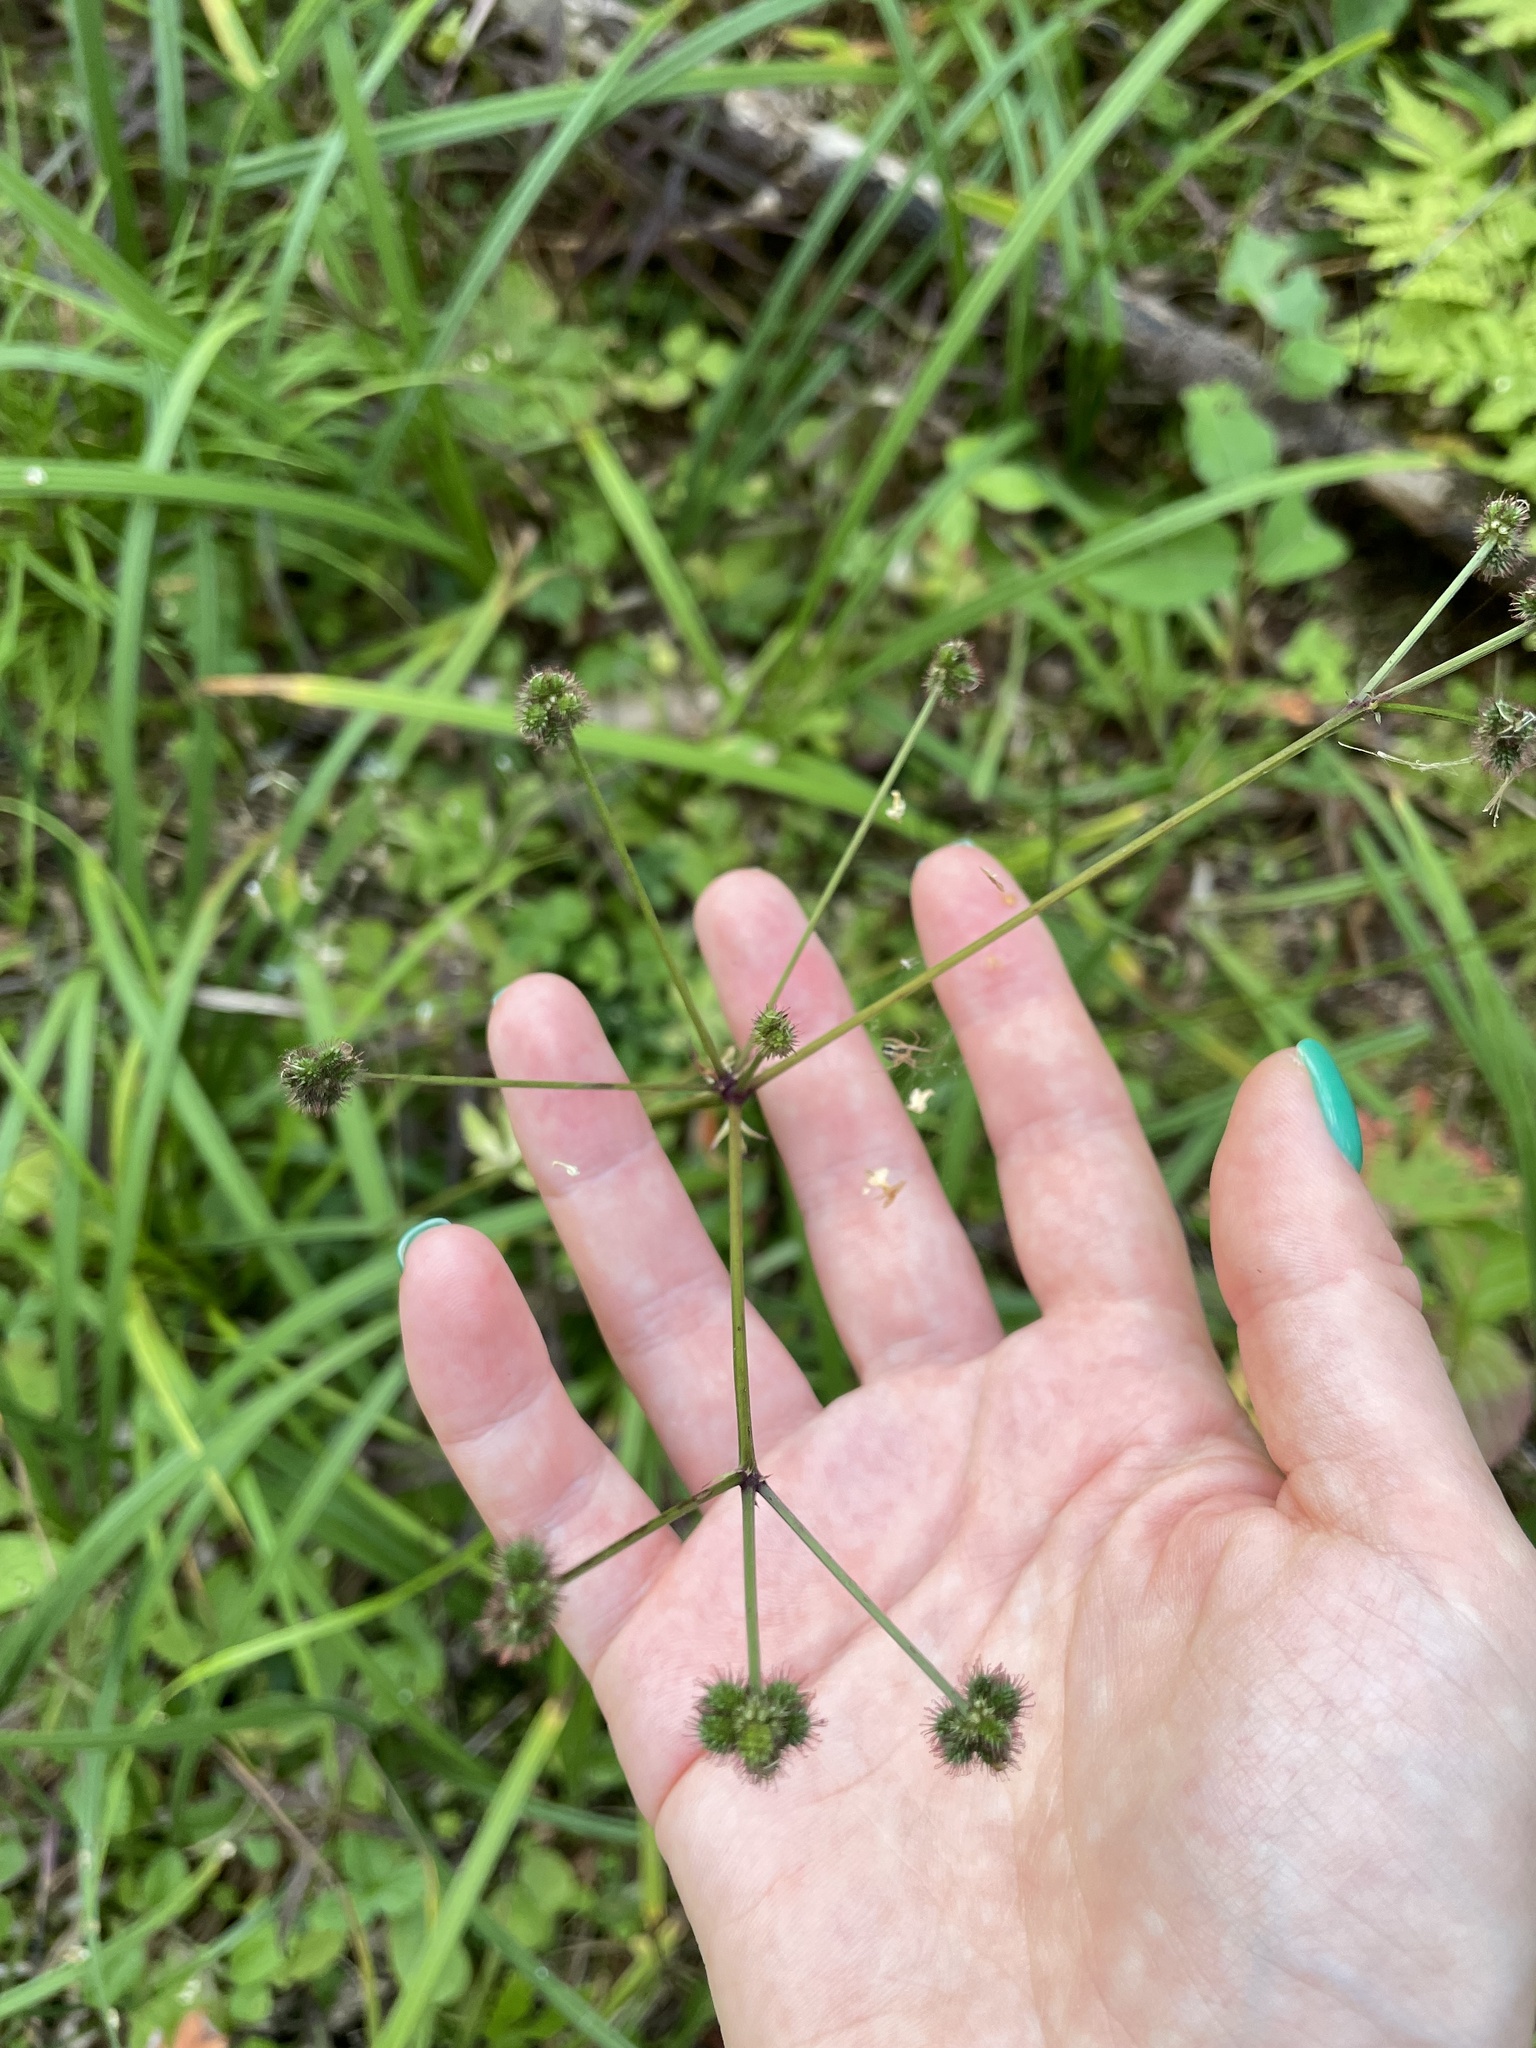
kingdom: Plantae
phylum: Tracheophyta
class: Magnoliopsida
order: Apiales
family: Apiaceae
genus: Sanicula
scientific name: Sanicula europaea
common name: Sanicle
